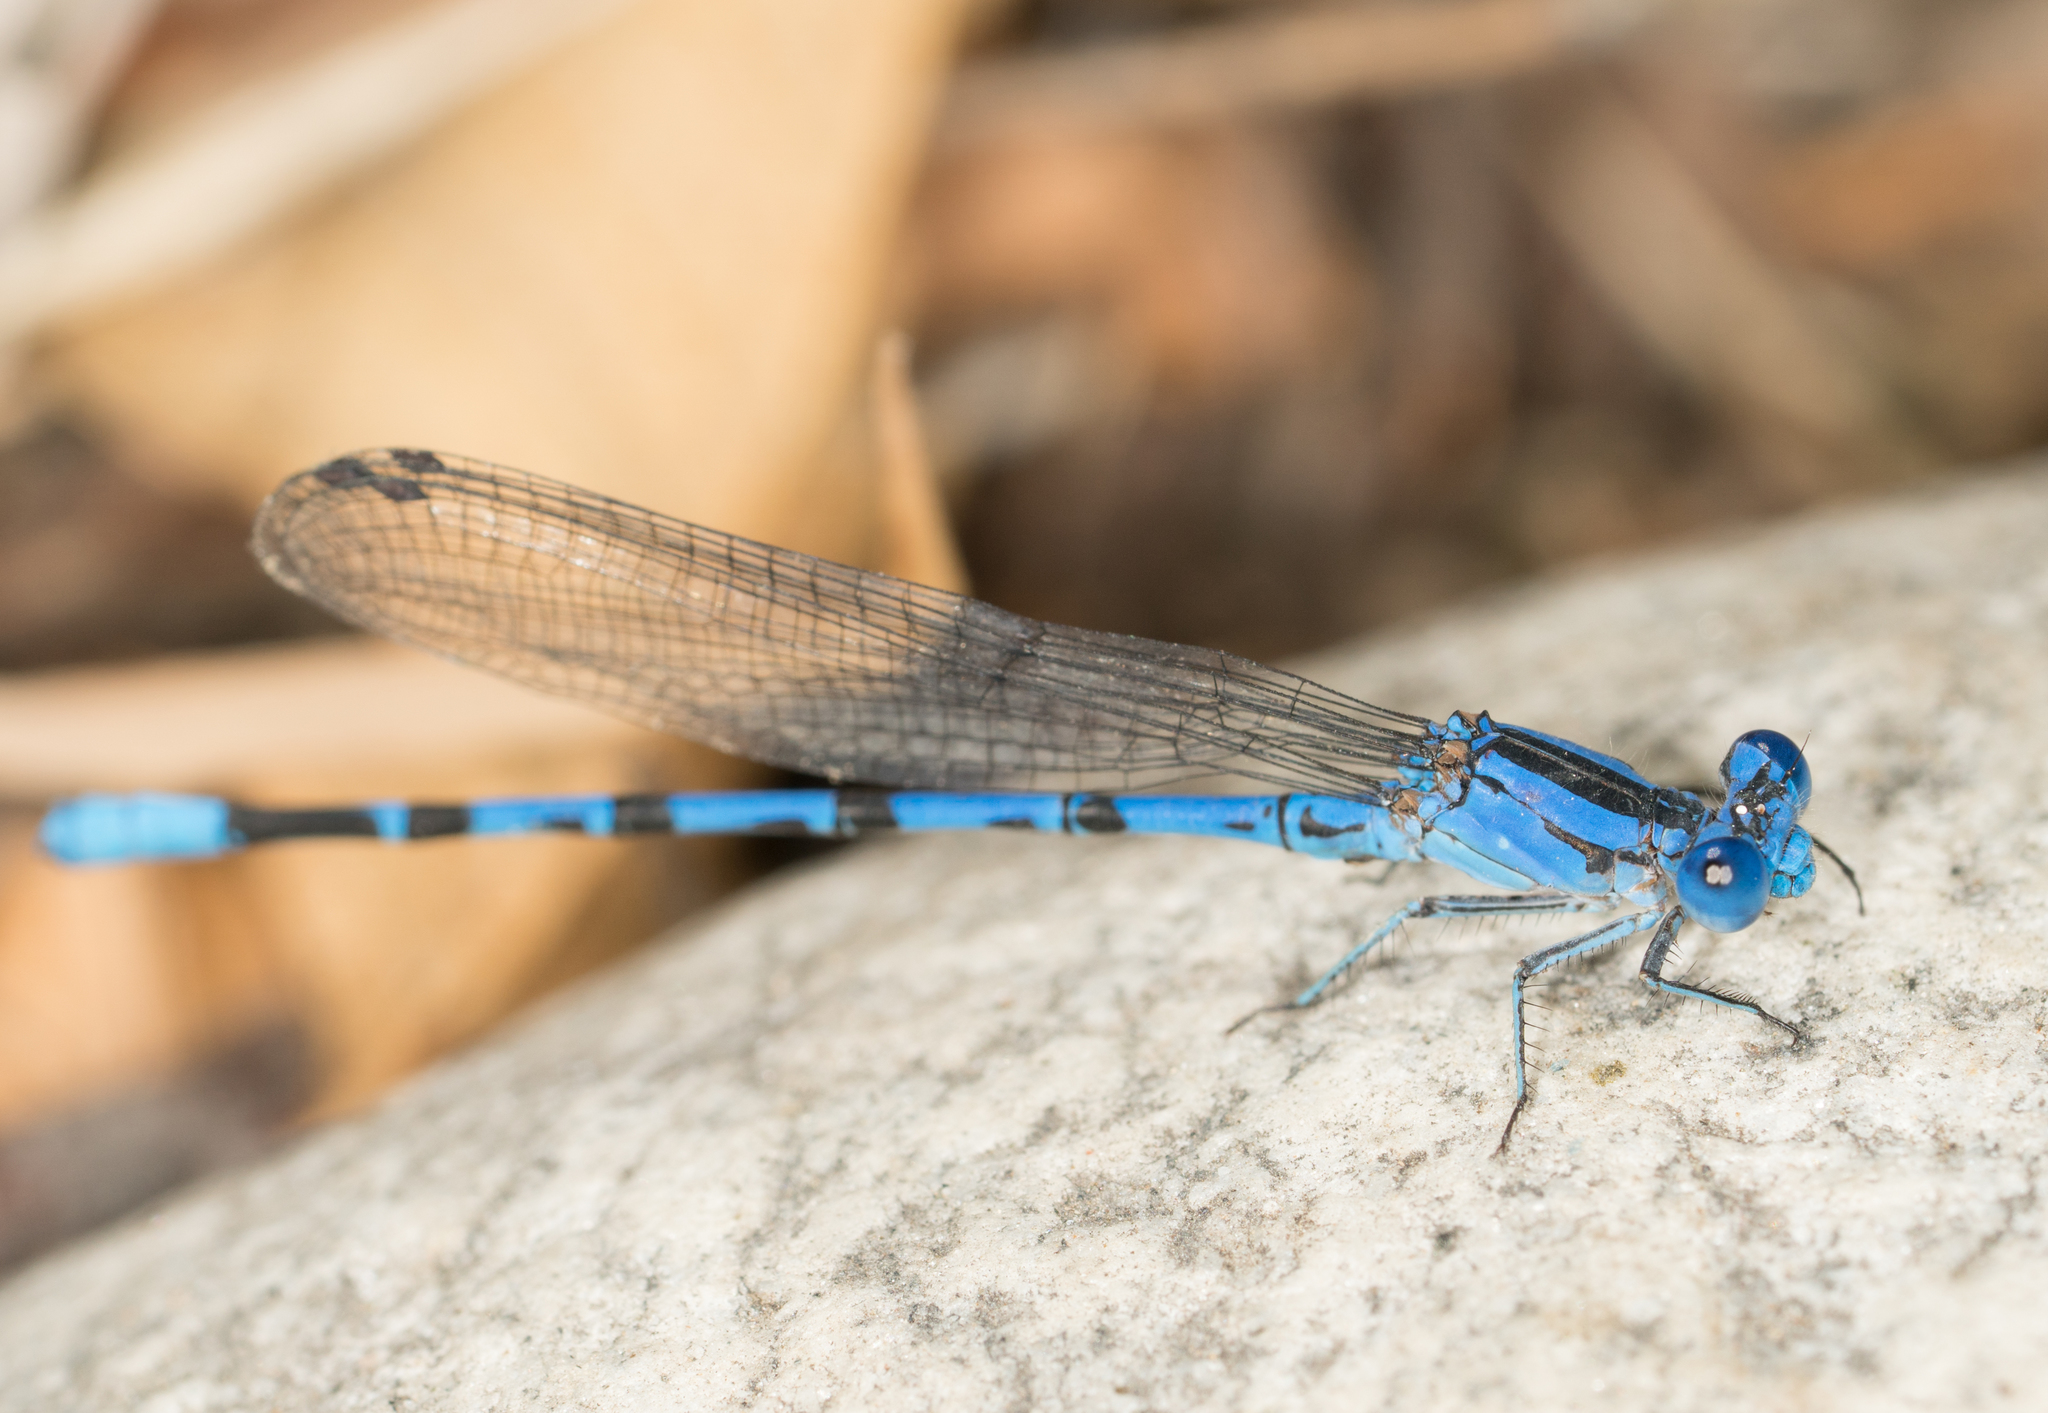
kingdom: Animalia
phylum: Arthropoda
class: Insecta
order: Odonata
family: Coenagrionidae
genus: Argia
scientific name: Argia vivida
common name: Vivid dancer
